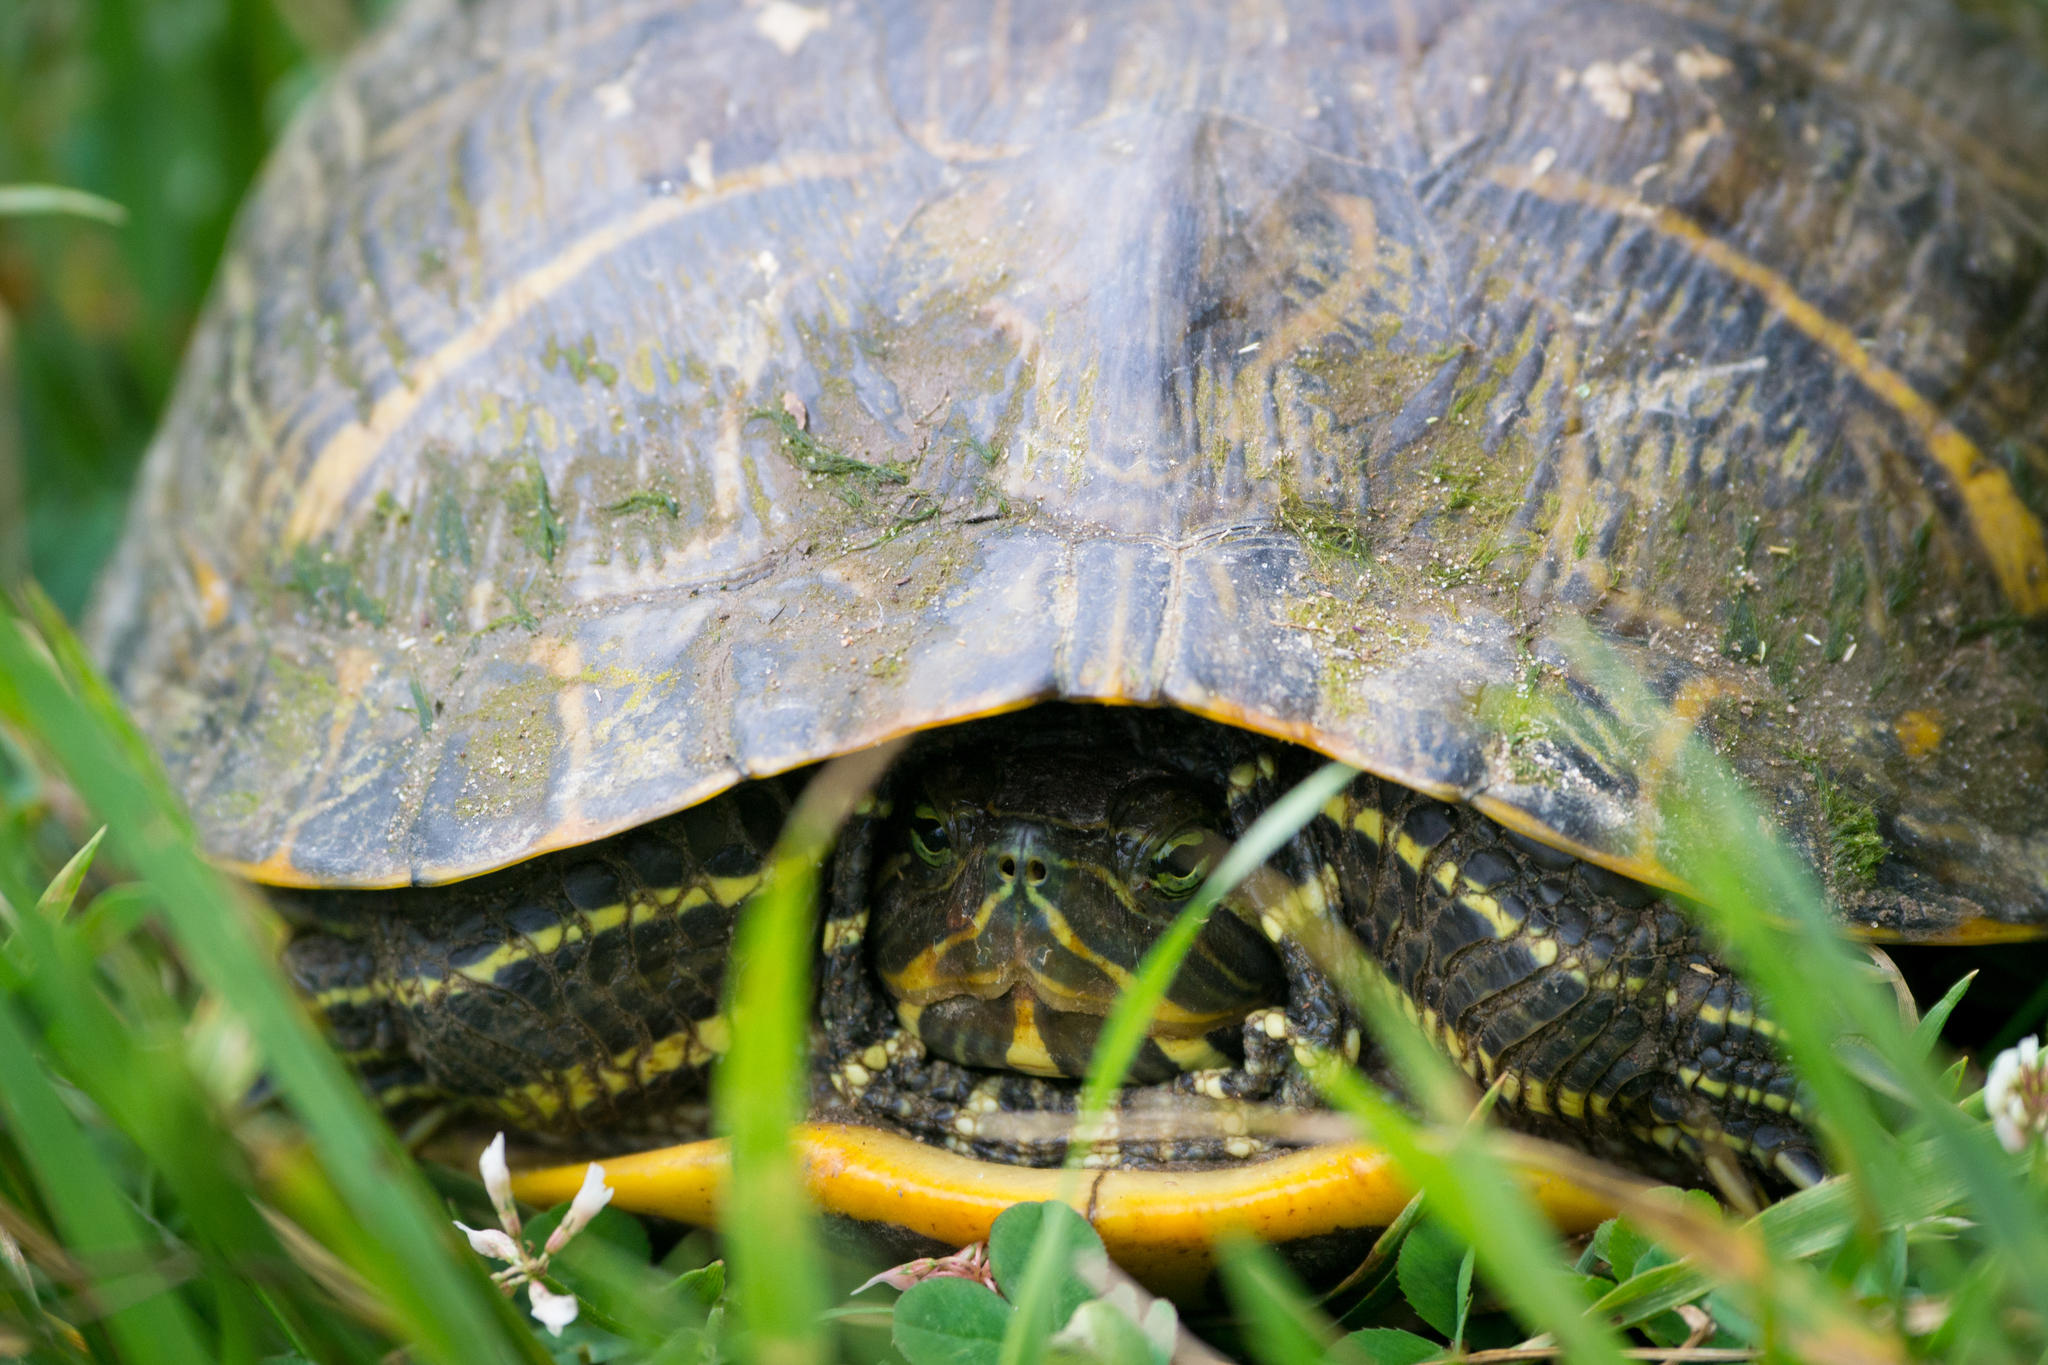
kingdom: Animalia
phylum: Chordata
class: Testudines
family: Emydidae
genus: Trachemys
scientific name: Trachemys scripta
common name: Slider
